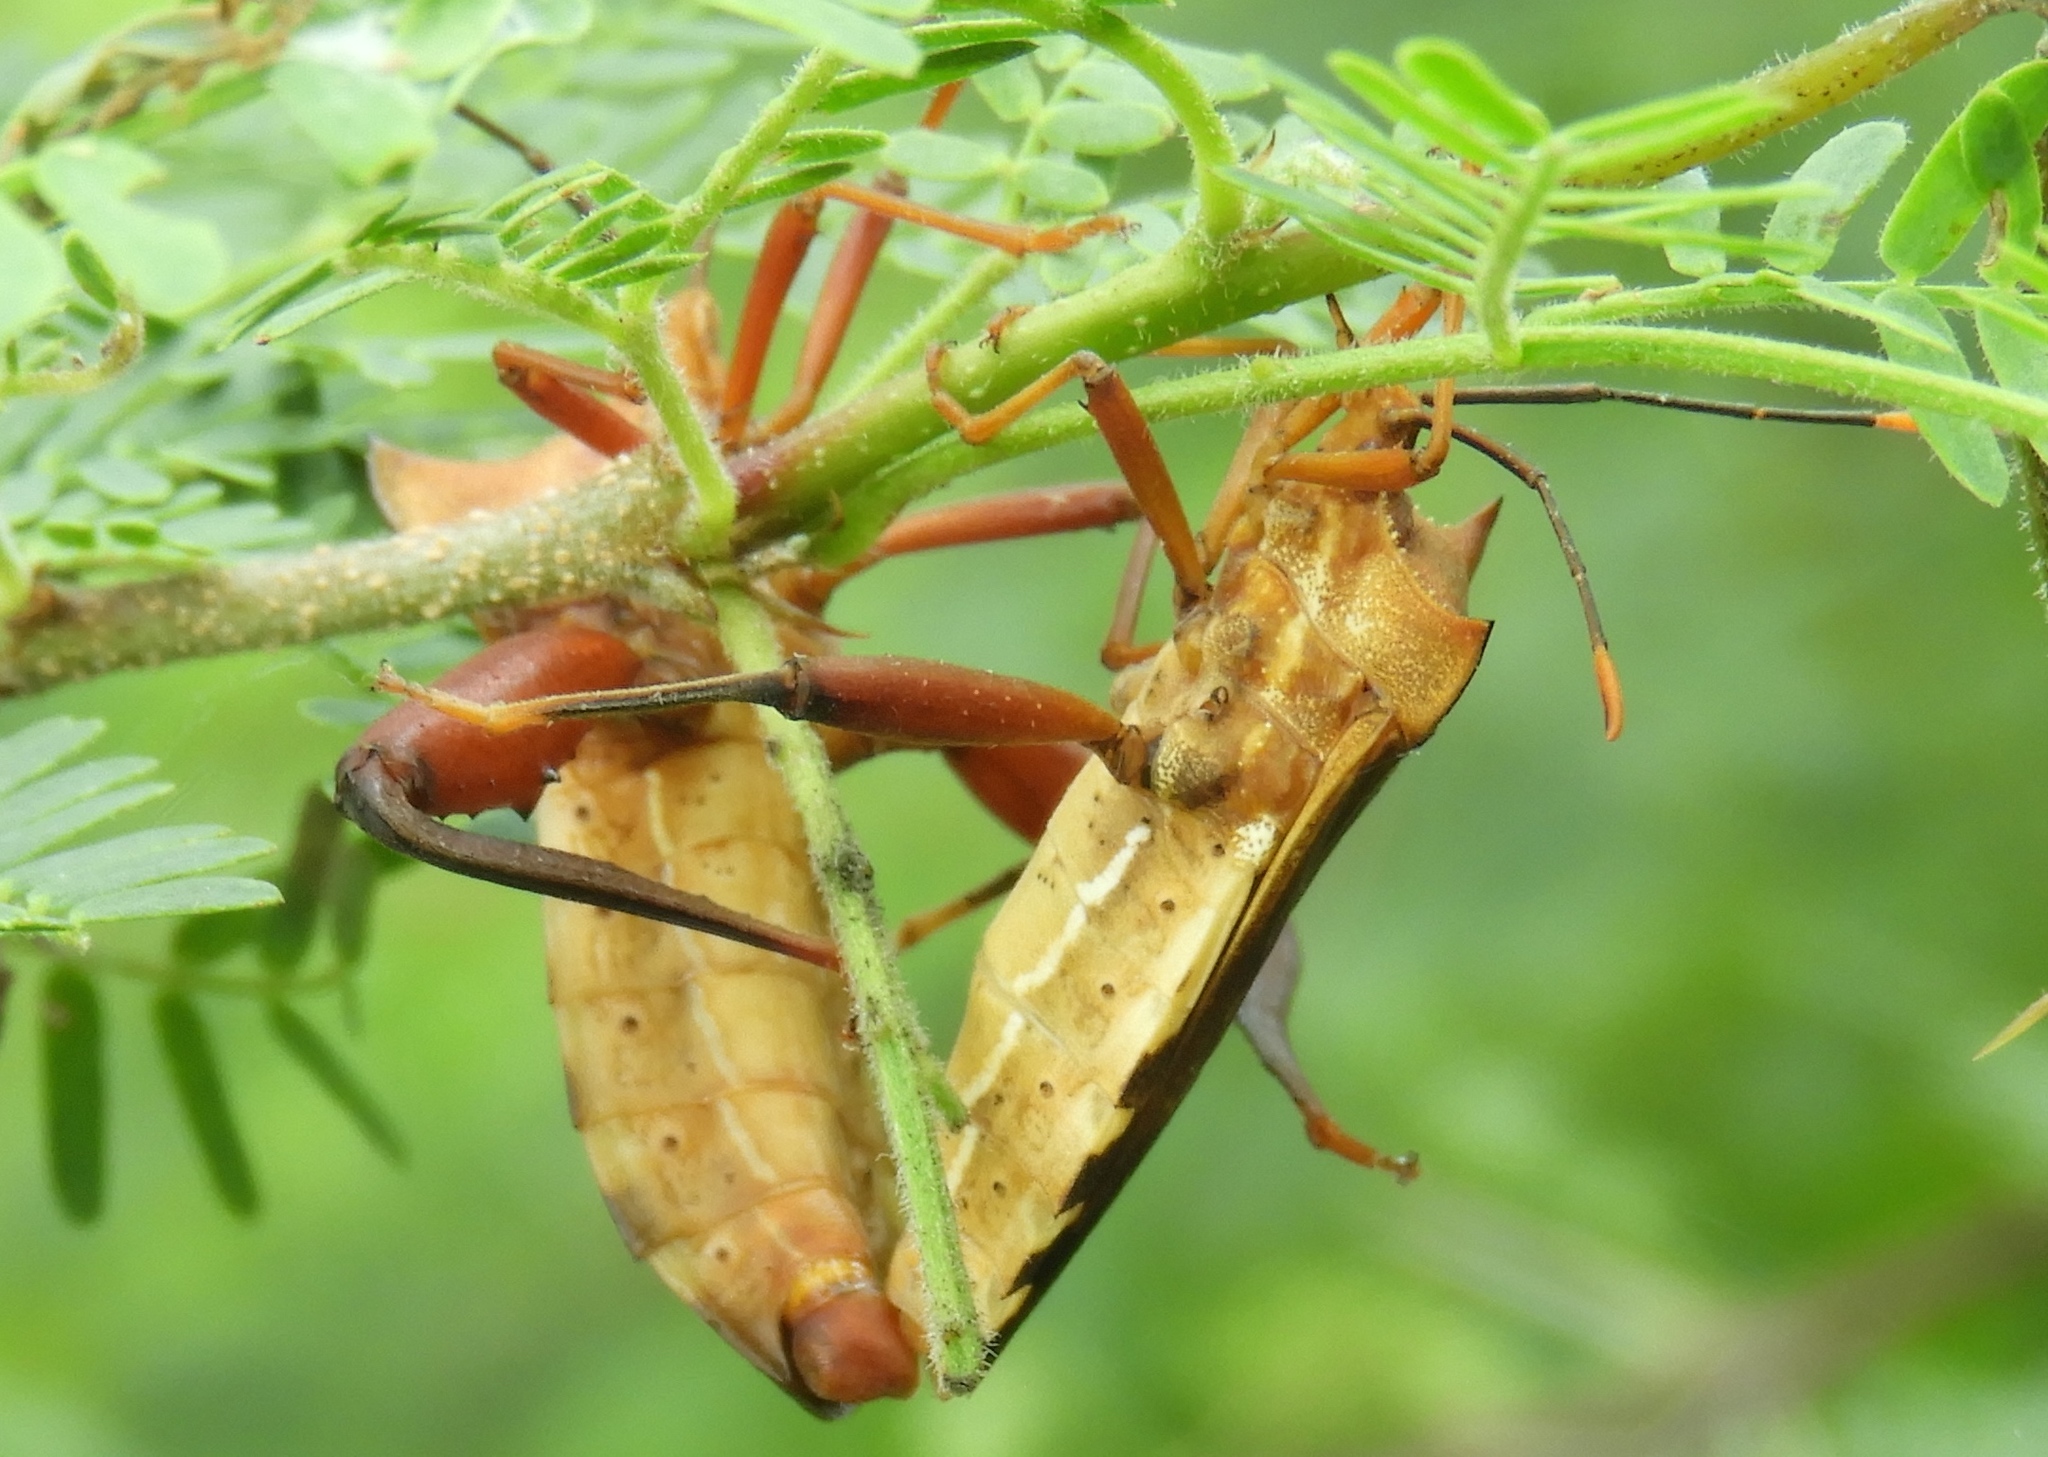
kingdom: Animalia
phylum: Arthropoda
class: Insecta
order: Hemiptera
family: Coreidae
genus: Mozena
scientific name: Mozena
